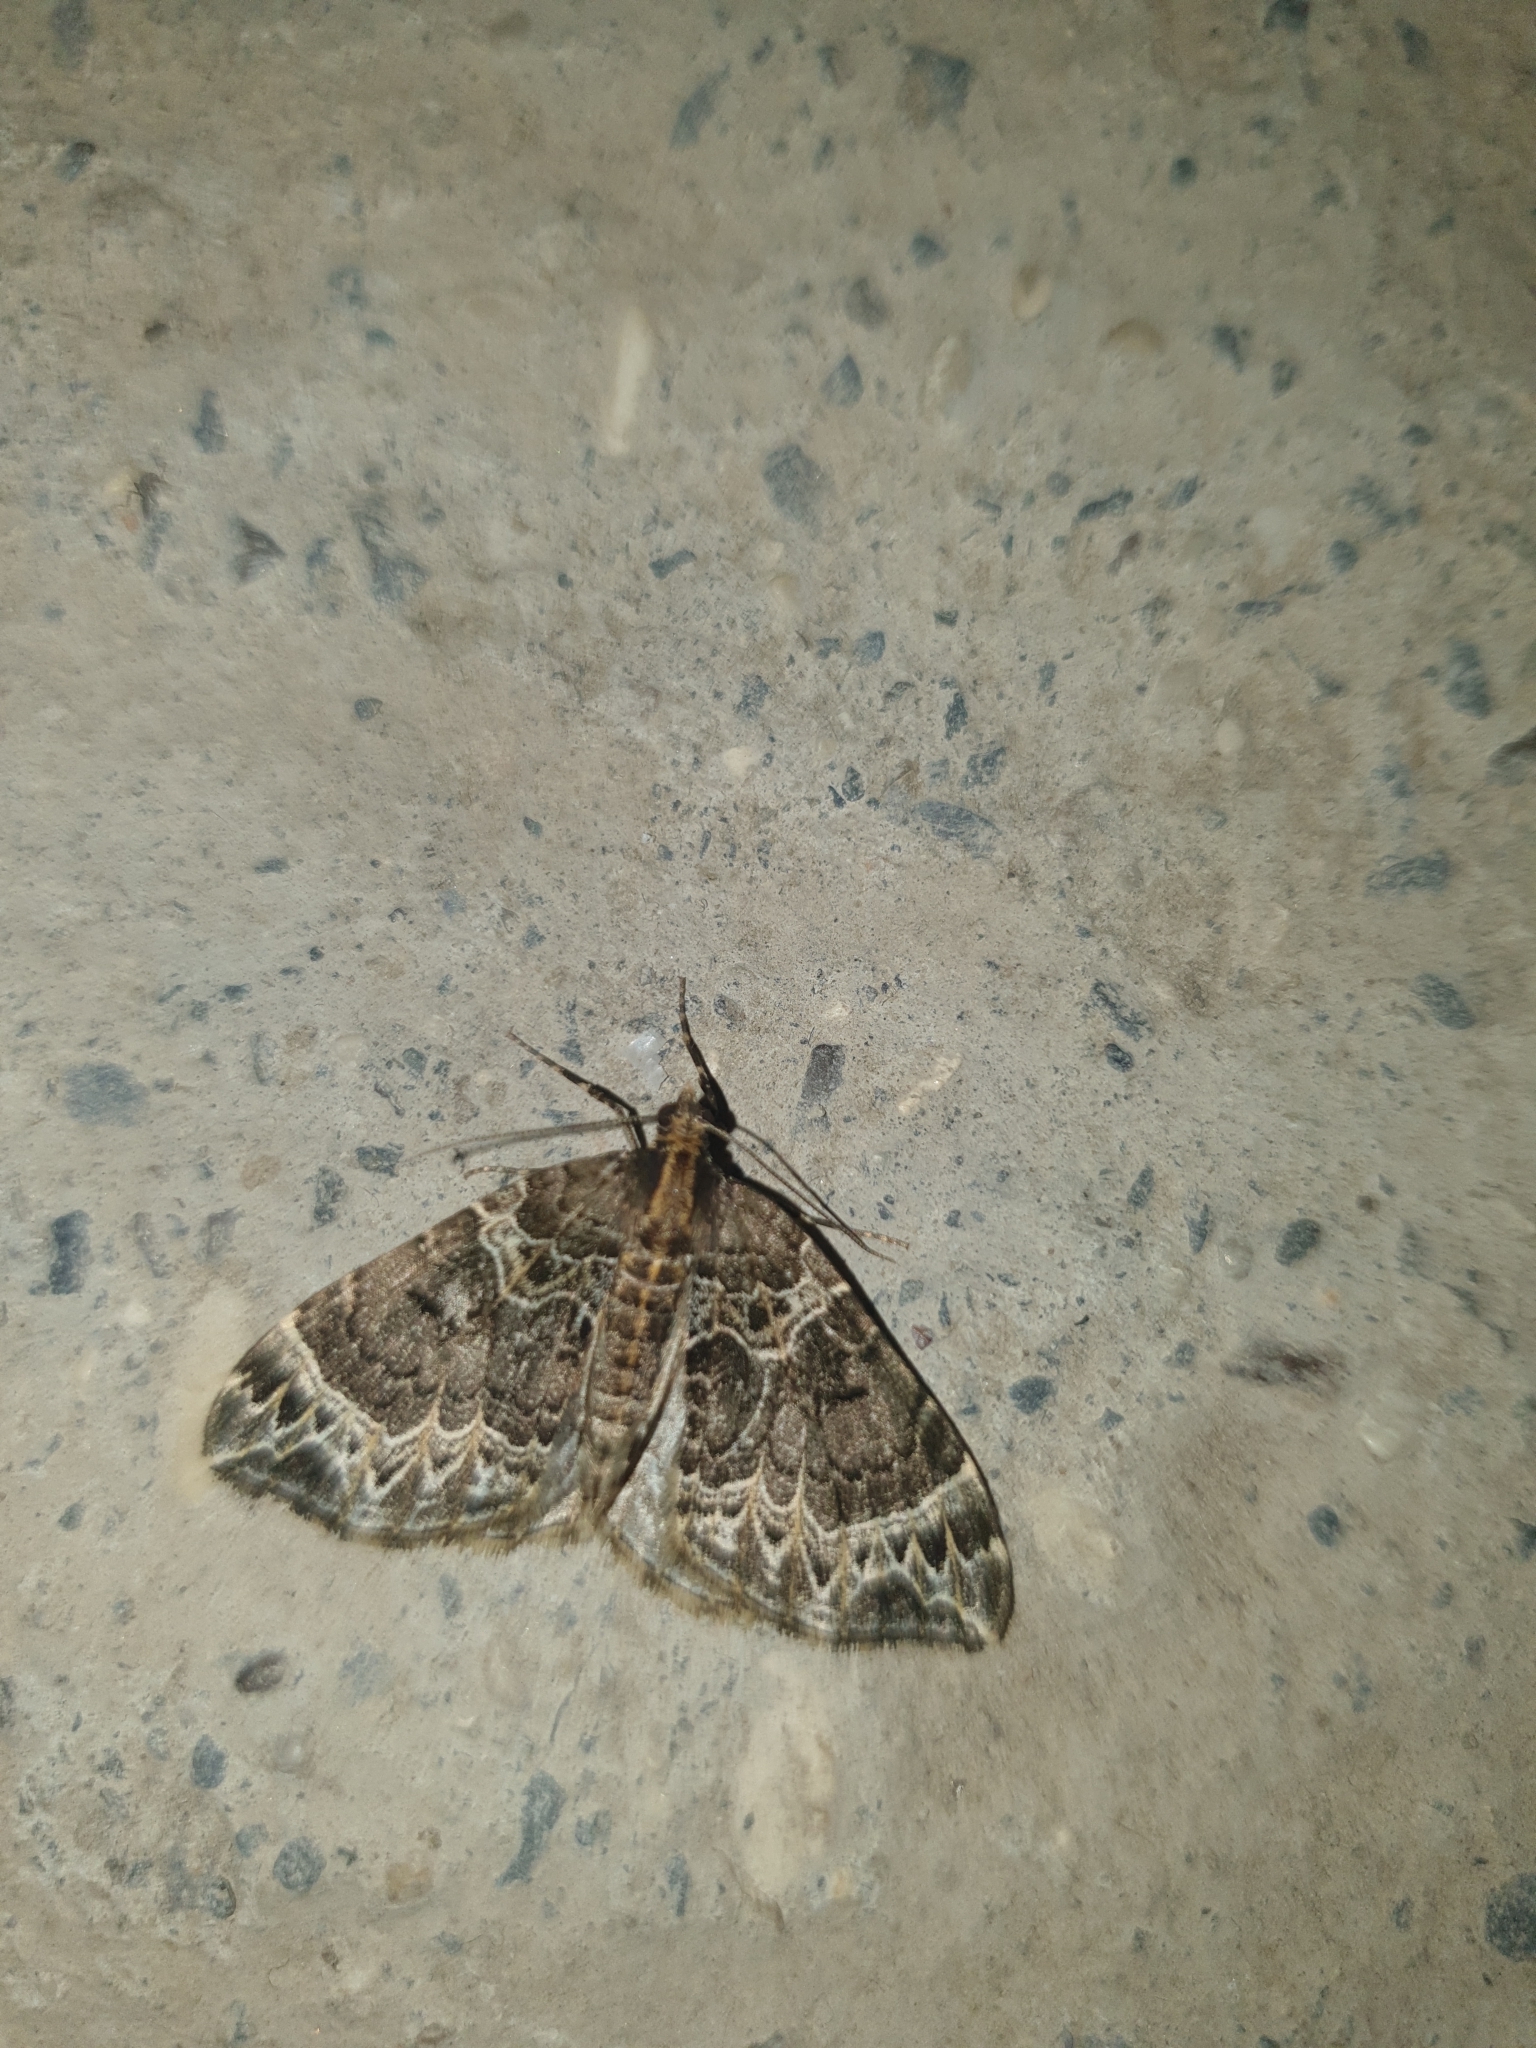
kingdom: Animalia
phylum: Arthropoda
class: Insecta
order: Lepidoptera
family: Geometridae
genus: Ecliptopera
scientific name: Ecliptopera silaceata
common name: Small phoenix
